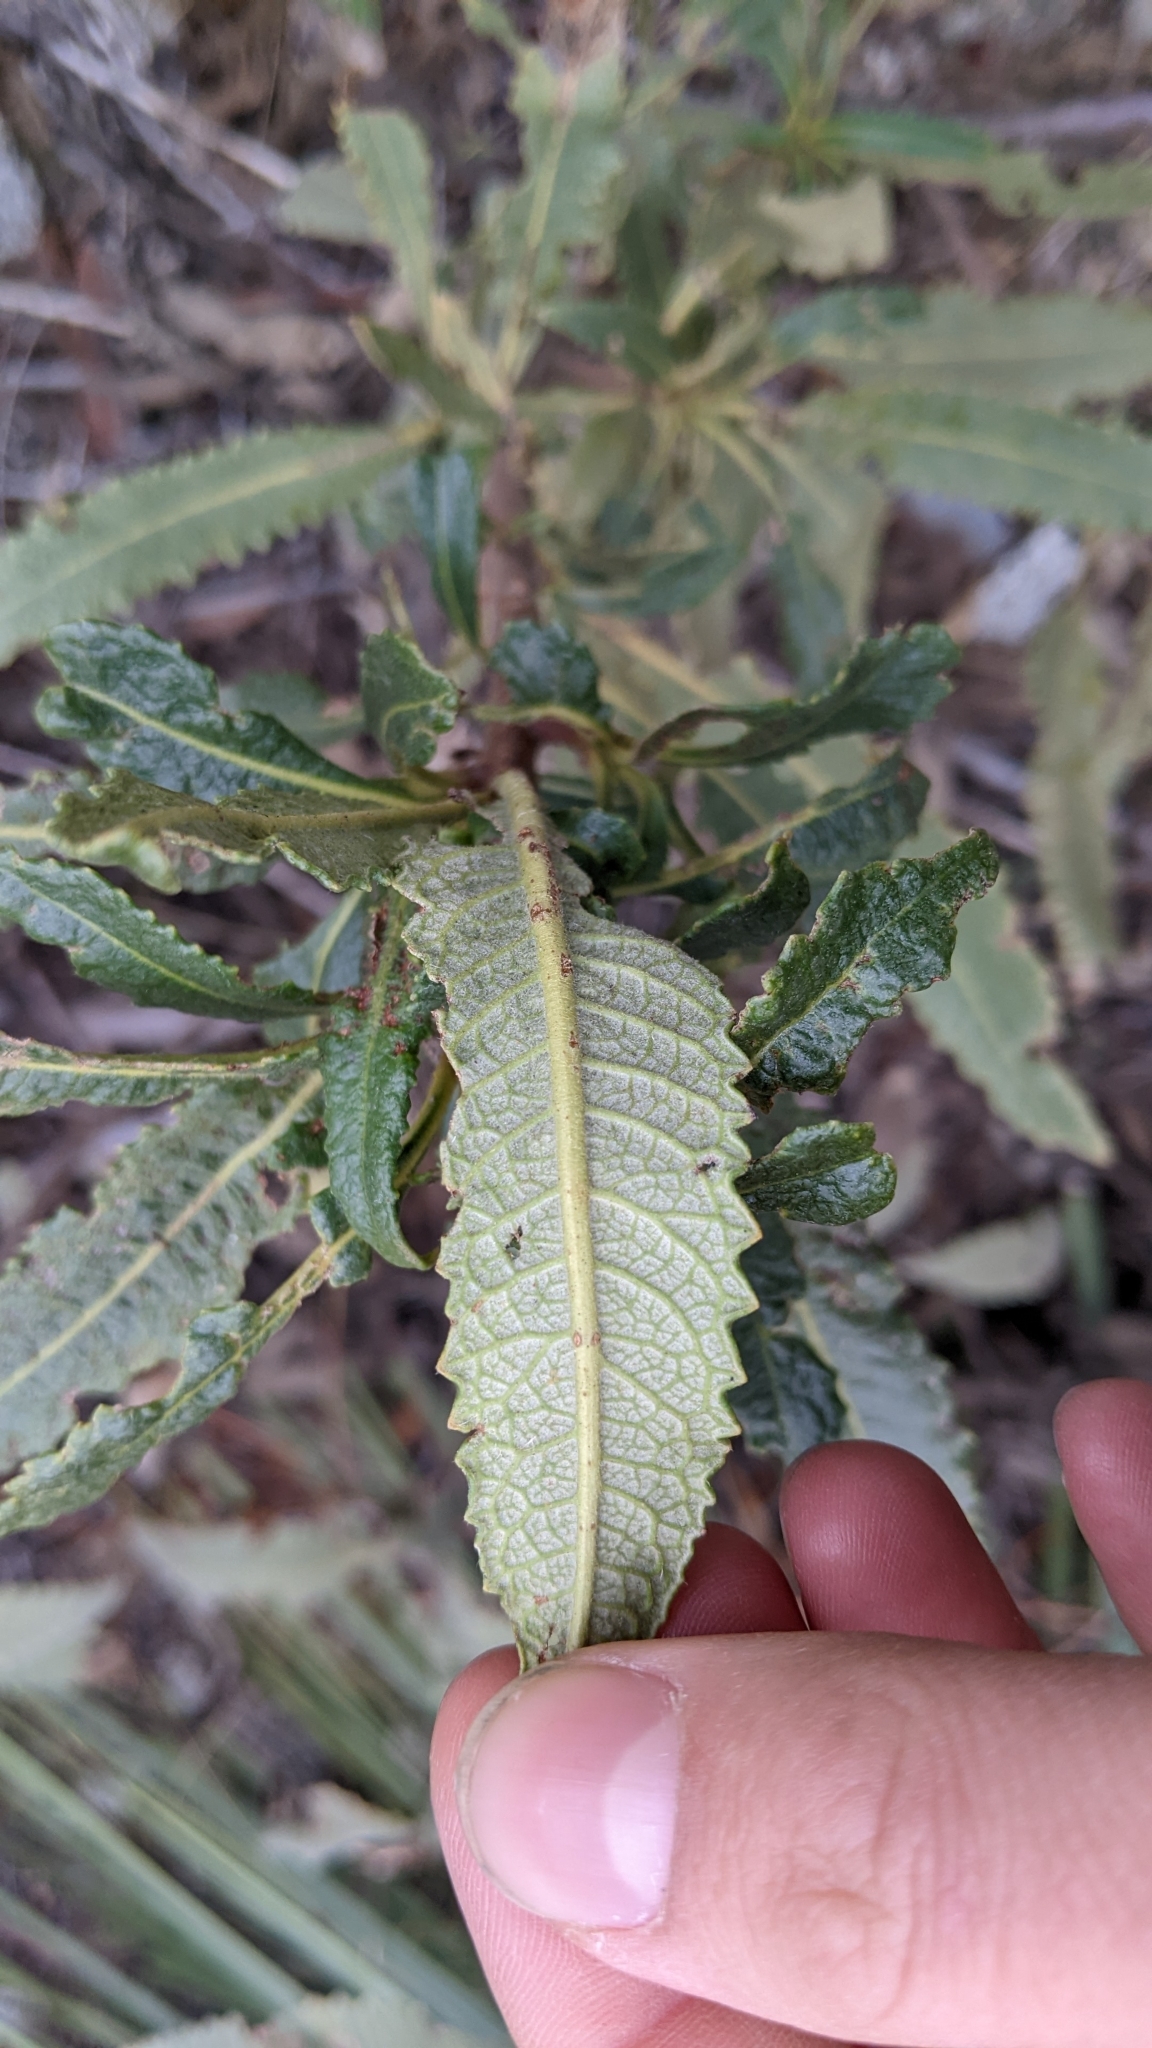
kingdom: Plantae
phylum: Tracheophyta
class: Magnoliopsida
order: Boraginales
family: Namaceae
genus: Eriodictyon
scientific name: Eriodictyon trichocalyx
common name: Hairy yerba-santa
